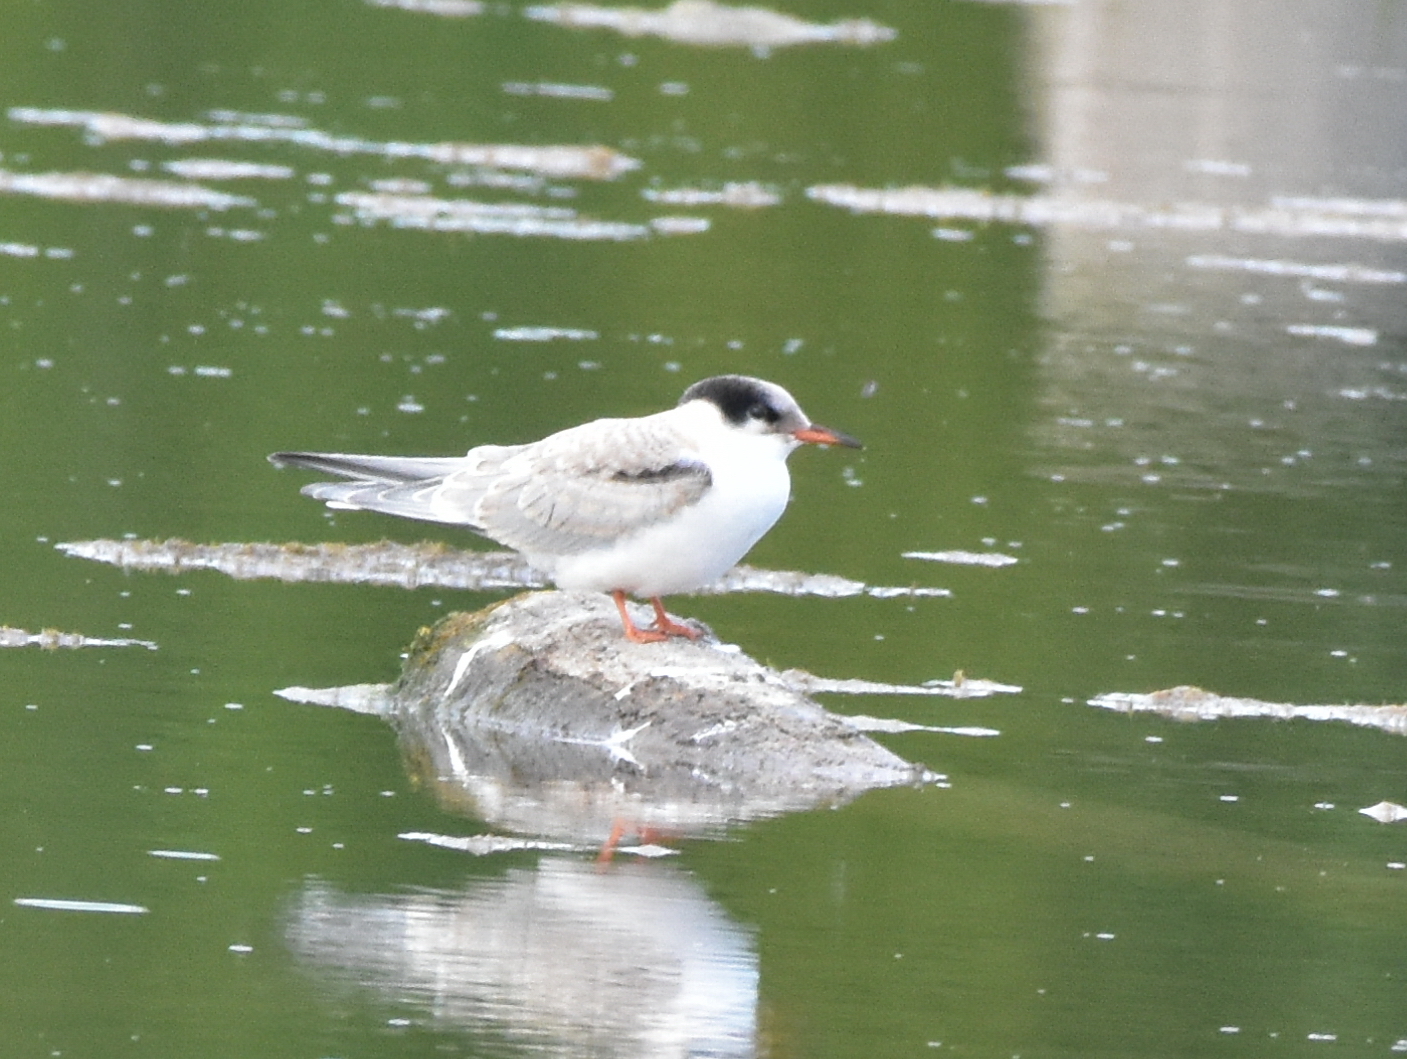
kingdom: Animalia
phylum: Chordata
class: Aves
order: Charadriiformes
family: Laridae
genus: Sterna
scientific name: Sterna hirundo
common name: Common tern
